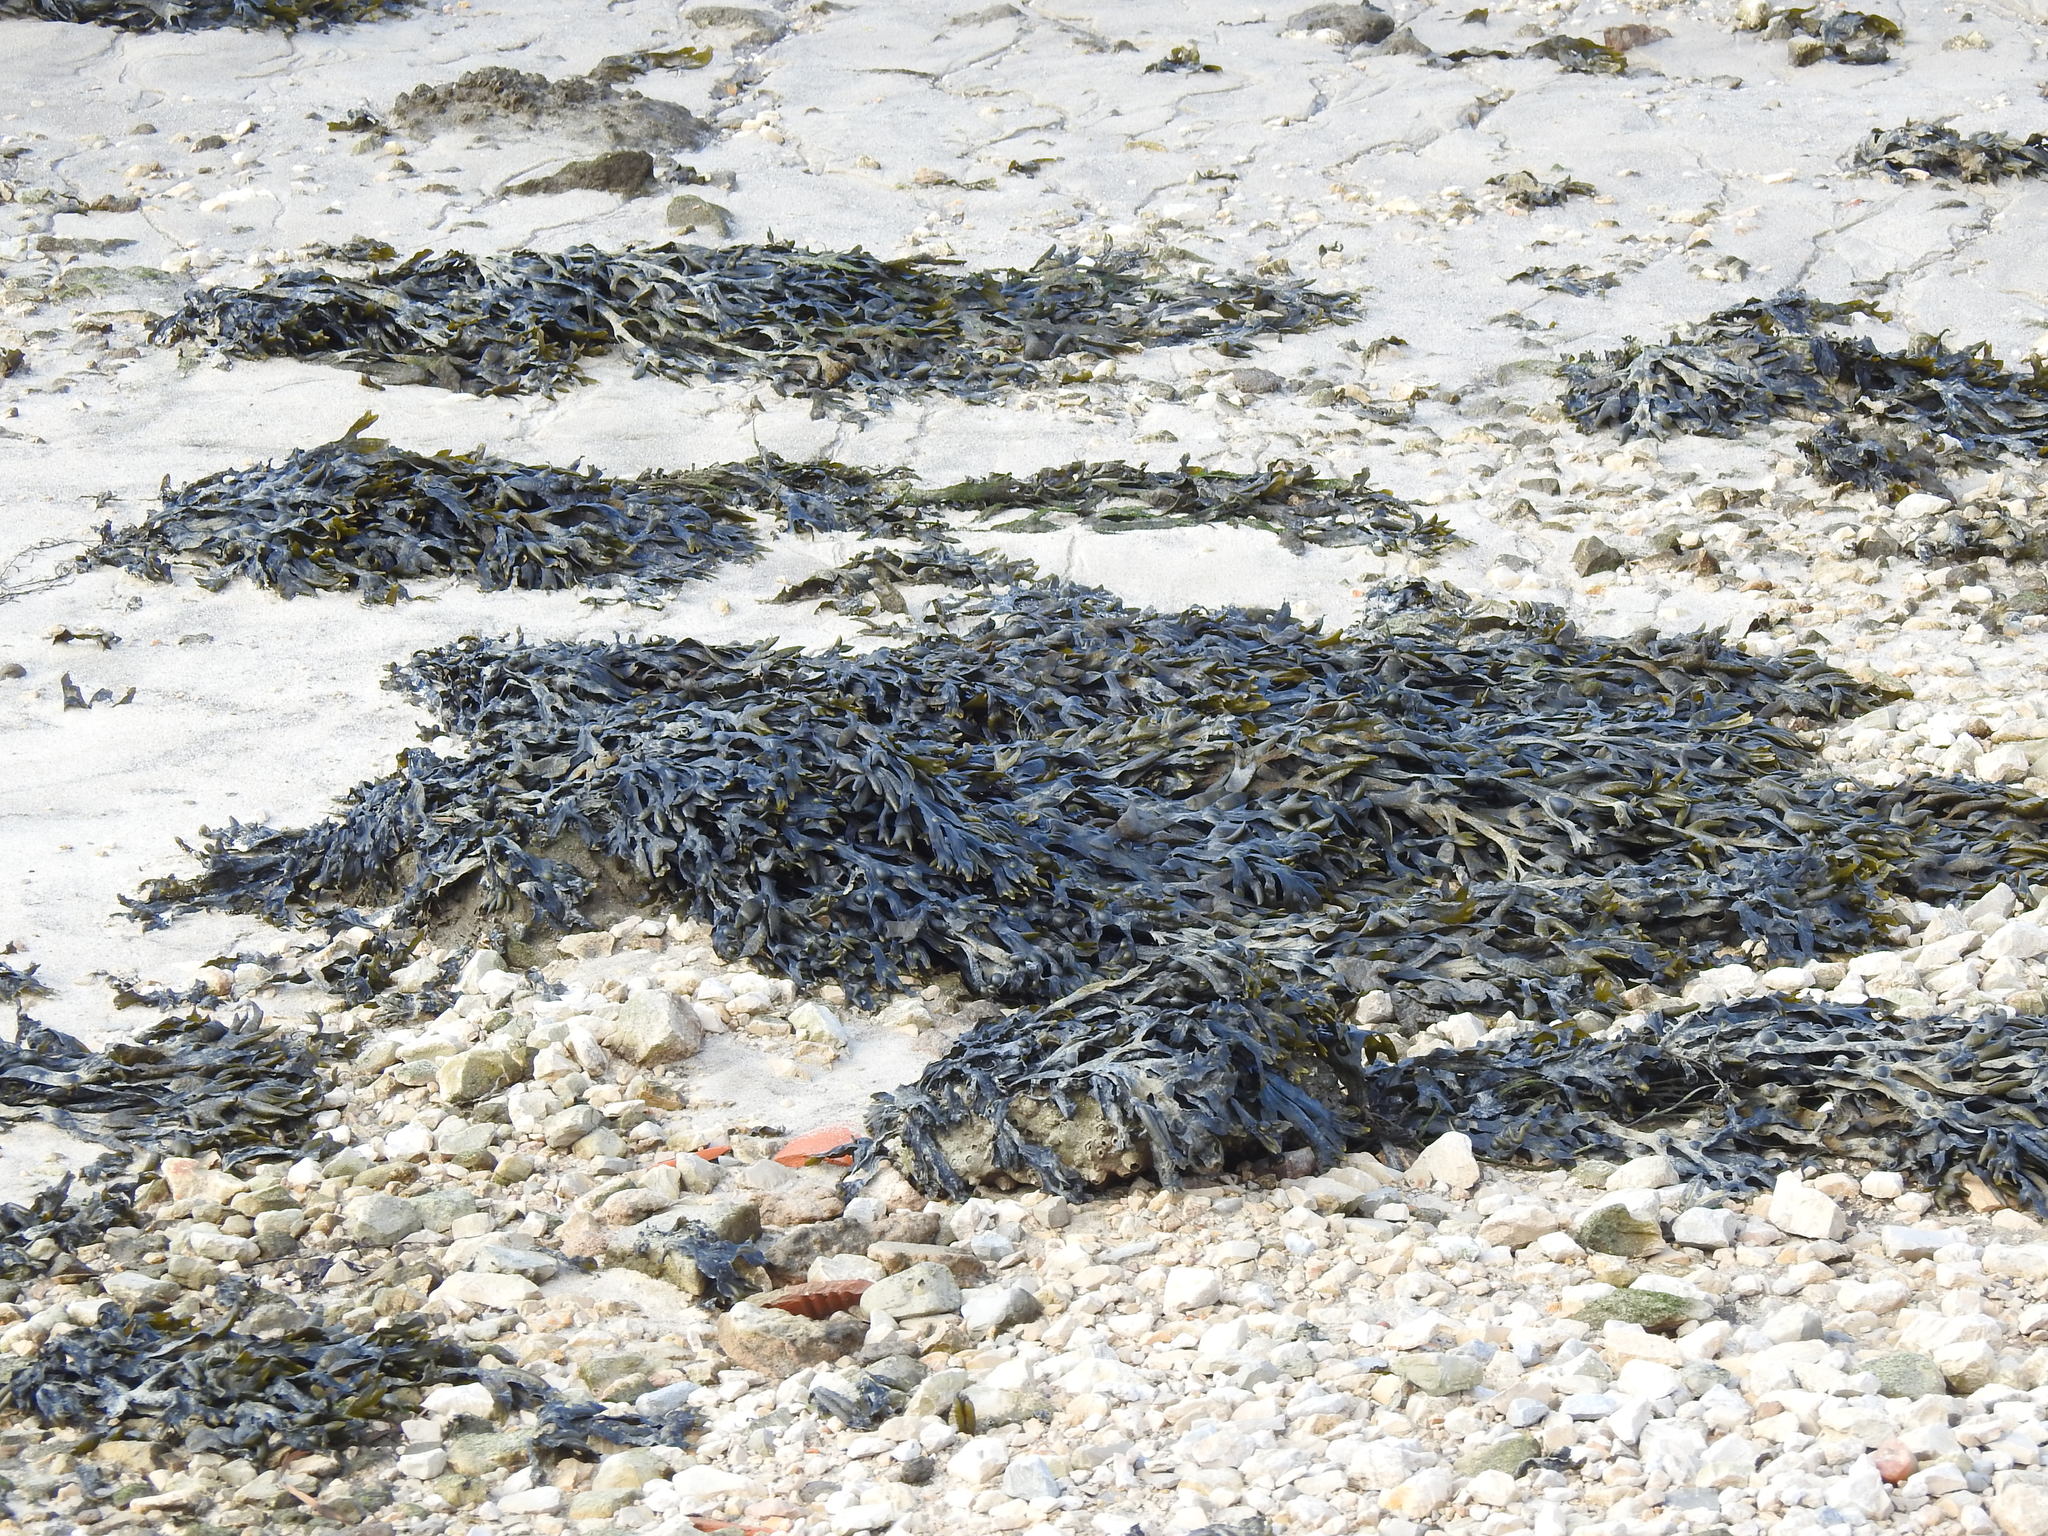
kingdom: Chromista
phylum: Ochrophyta
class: Phaeophyceae
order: Fucales
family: Fucaceae
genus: Fucus
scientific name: Fucus vesiculosus
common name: Bladder wrack
